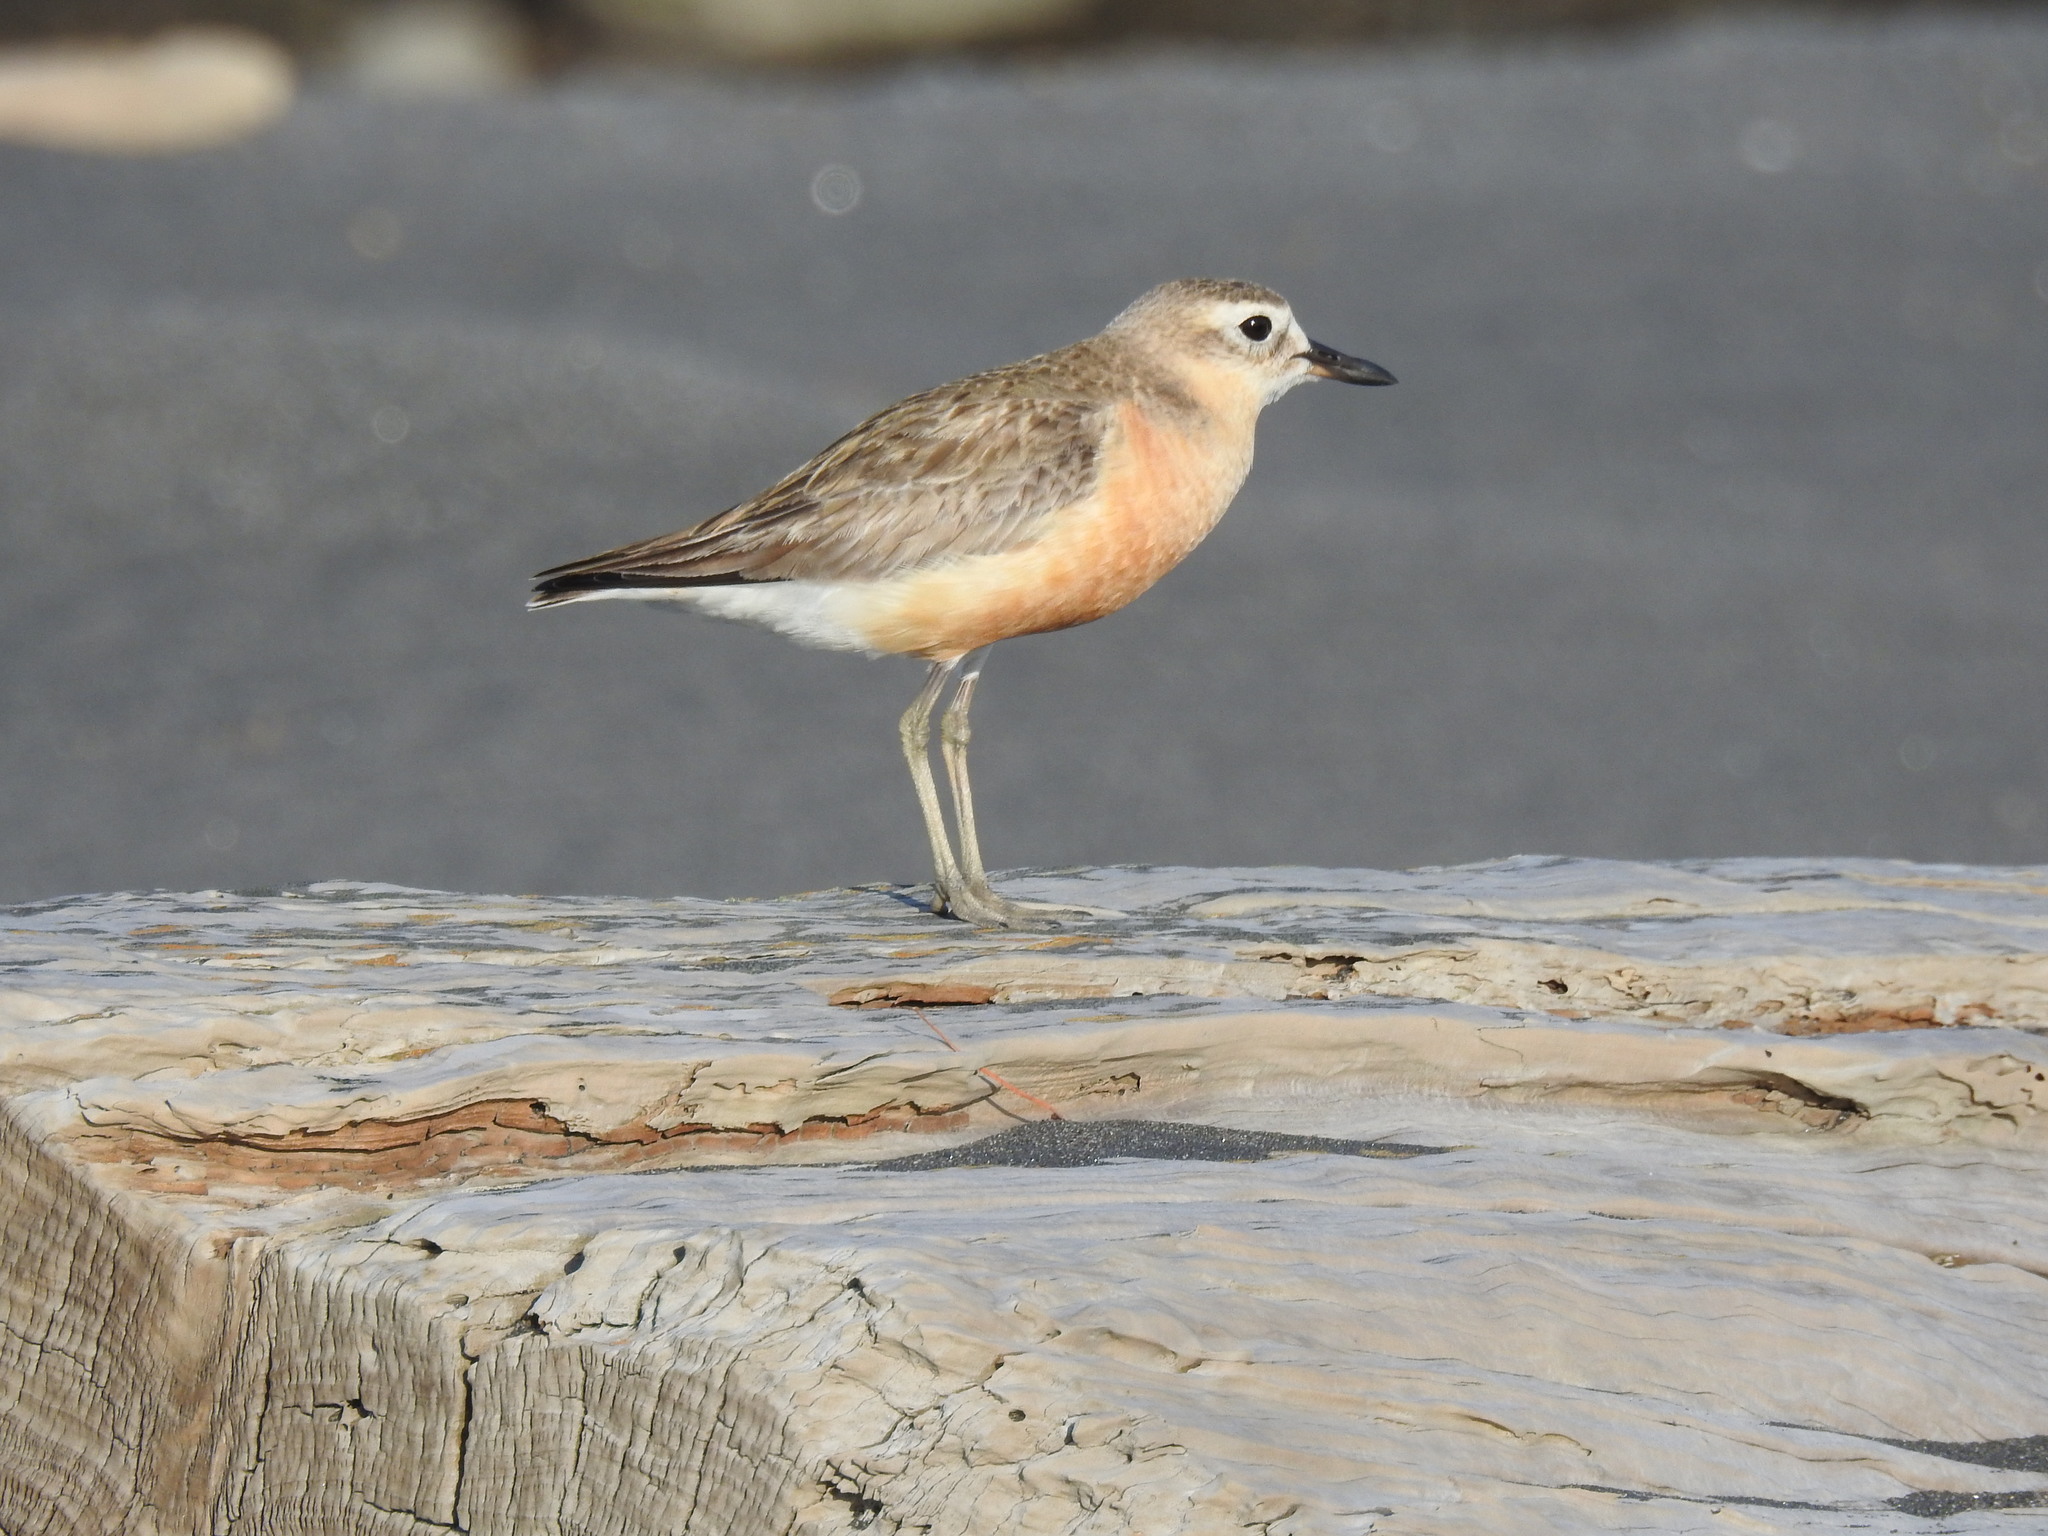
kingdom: Animalia
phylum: Chordata
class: Aves
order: Charadriiformes
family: Charadriidae
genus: Anarhynchus
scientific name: Anarhynchus
